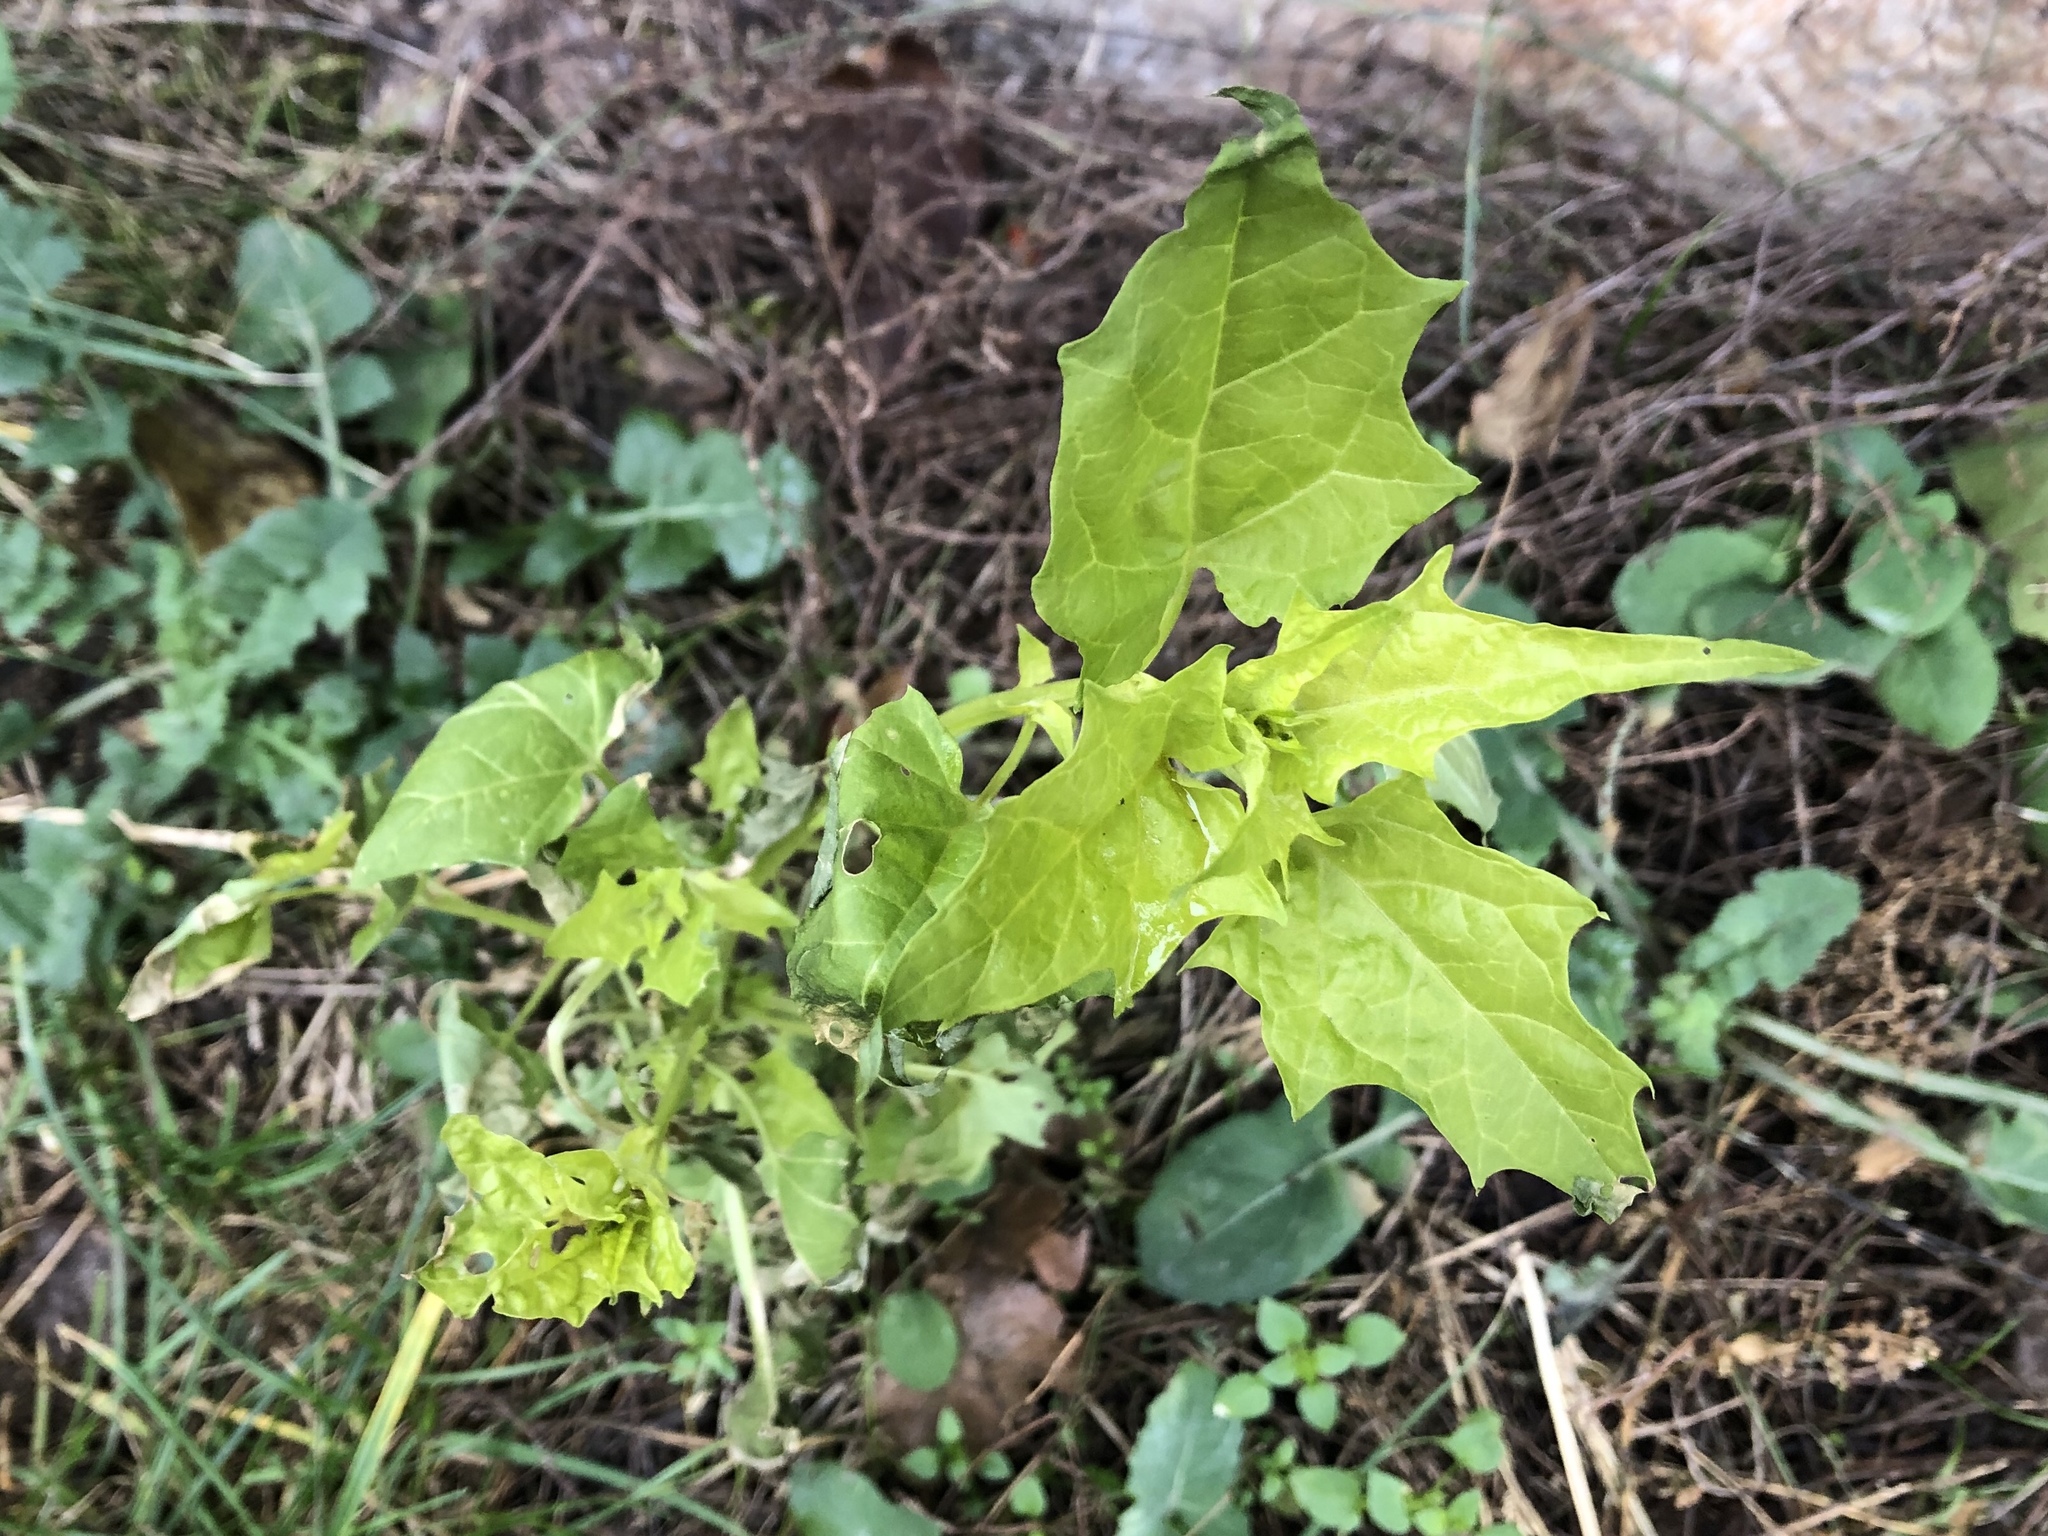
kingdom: Plantae
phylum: Tracheophyta
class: Magnoliopsida
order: Caryophyllales
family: Amaranthaceae
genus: Chenopodiastrum
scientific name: Chenopodiastrum hybridum
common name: Mapleleaf goosefoot
